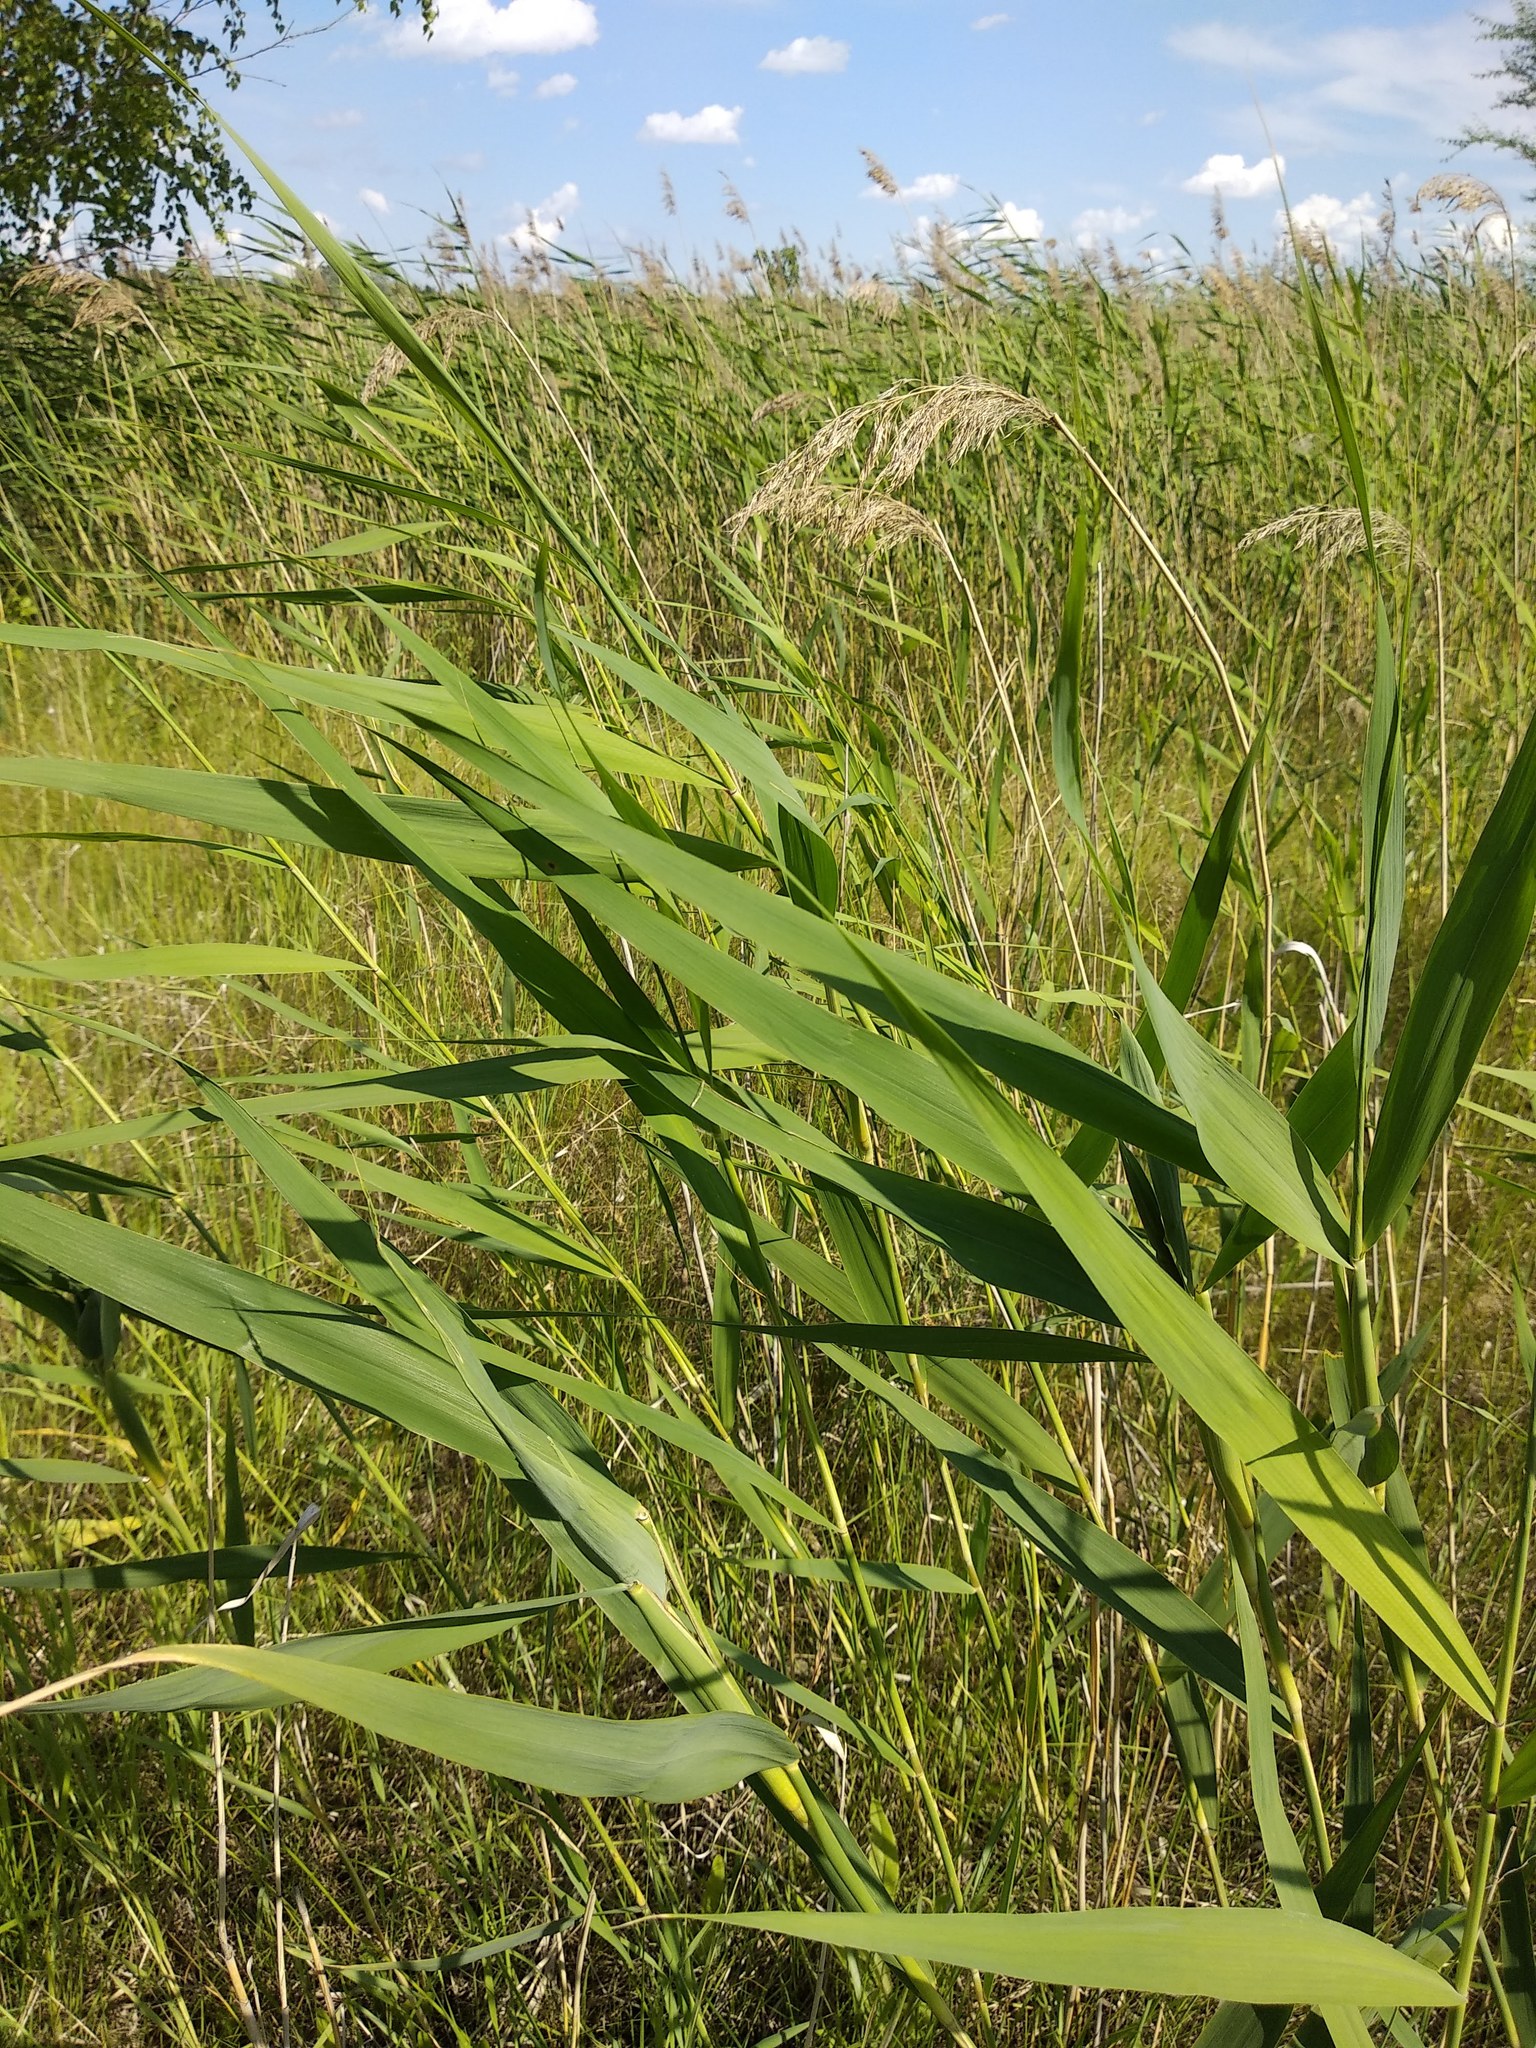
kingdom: Plantae
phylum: Tracheophyta
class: Liliopsida
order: Poales
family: Poaceae
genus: Phragmites
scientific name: Phragmites australis
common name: Common reed
